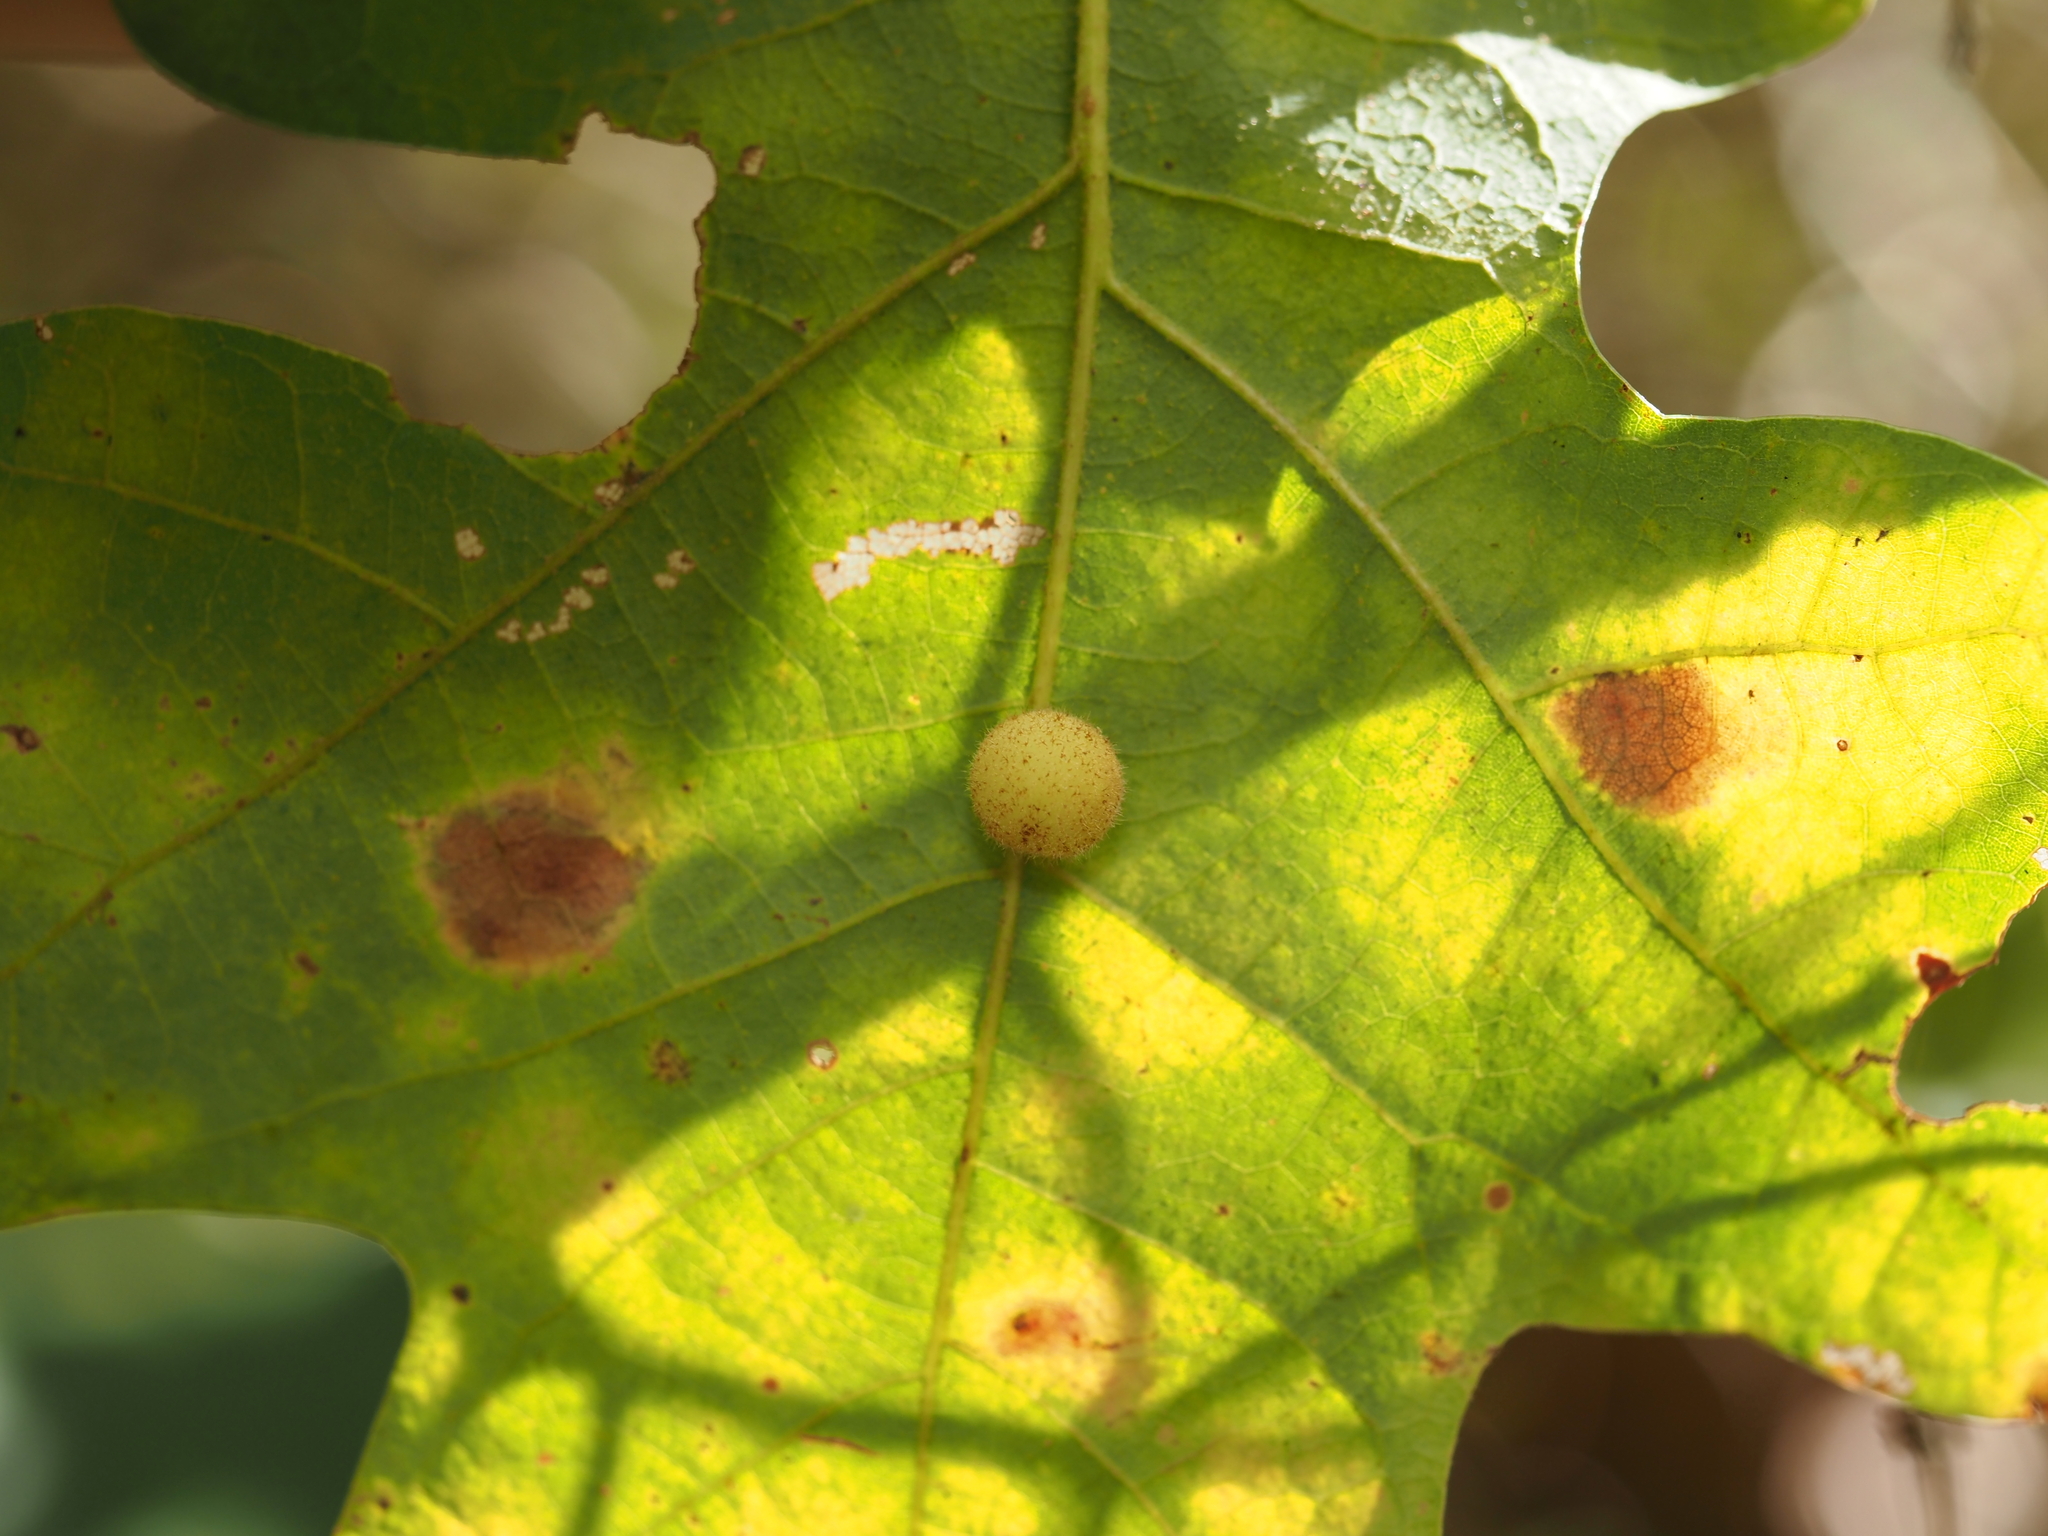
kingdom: Animalia
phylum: Arthropoda
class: Insecta
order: Hymenoptera
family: Cynipidae
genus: Atrusca
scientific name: Atrusca
